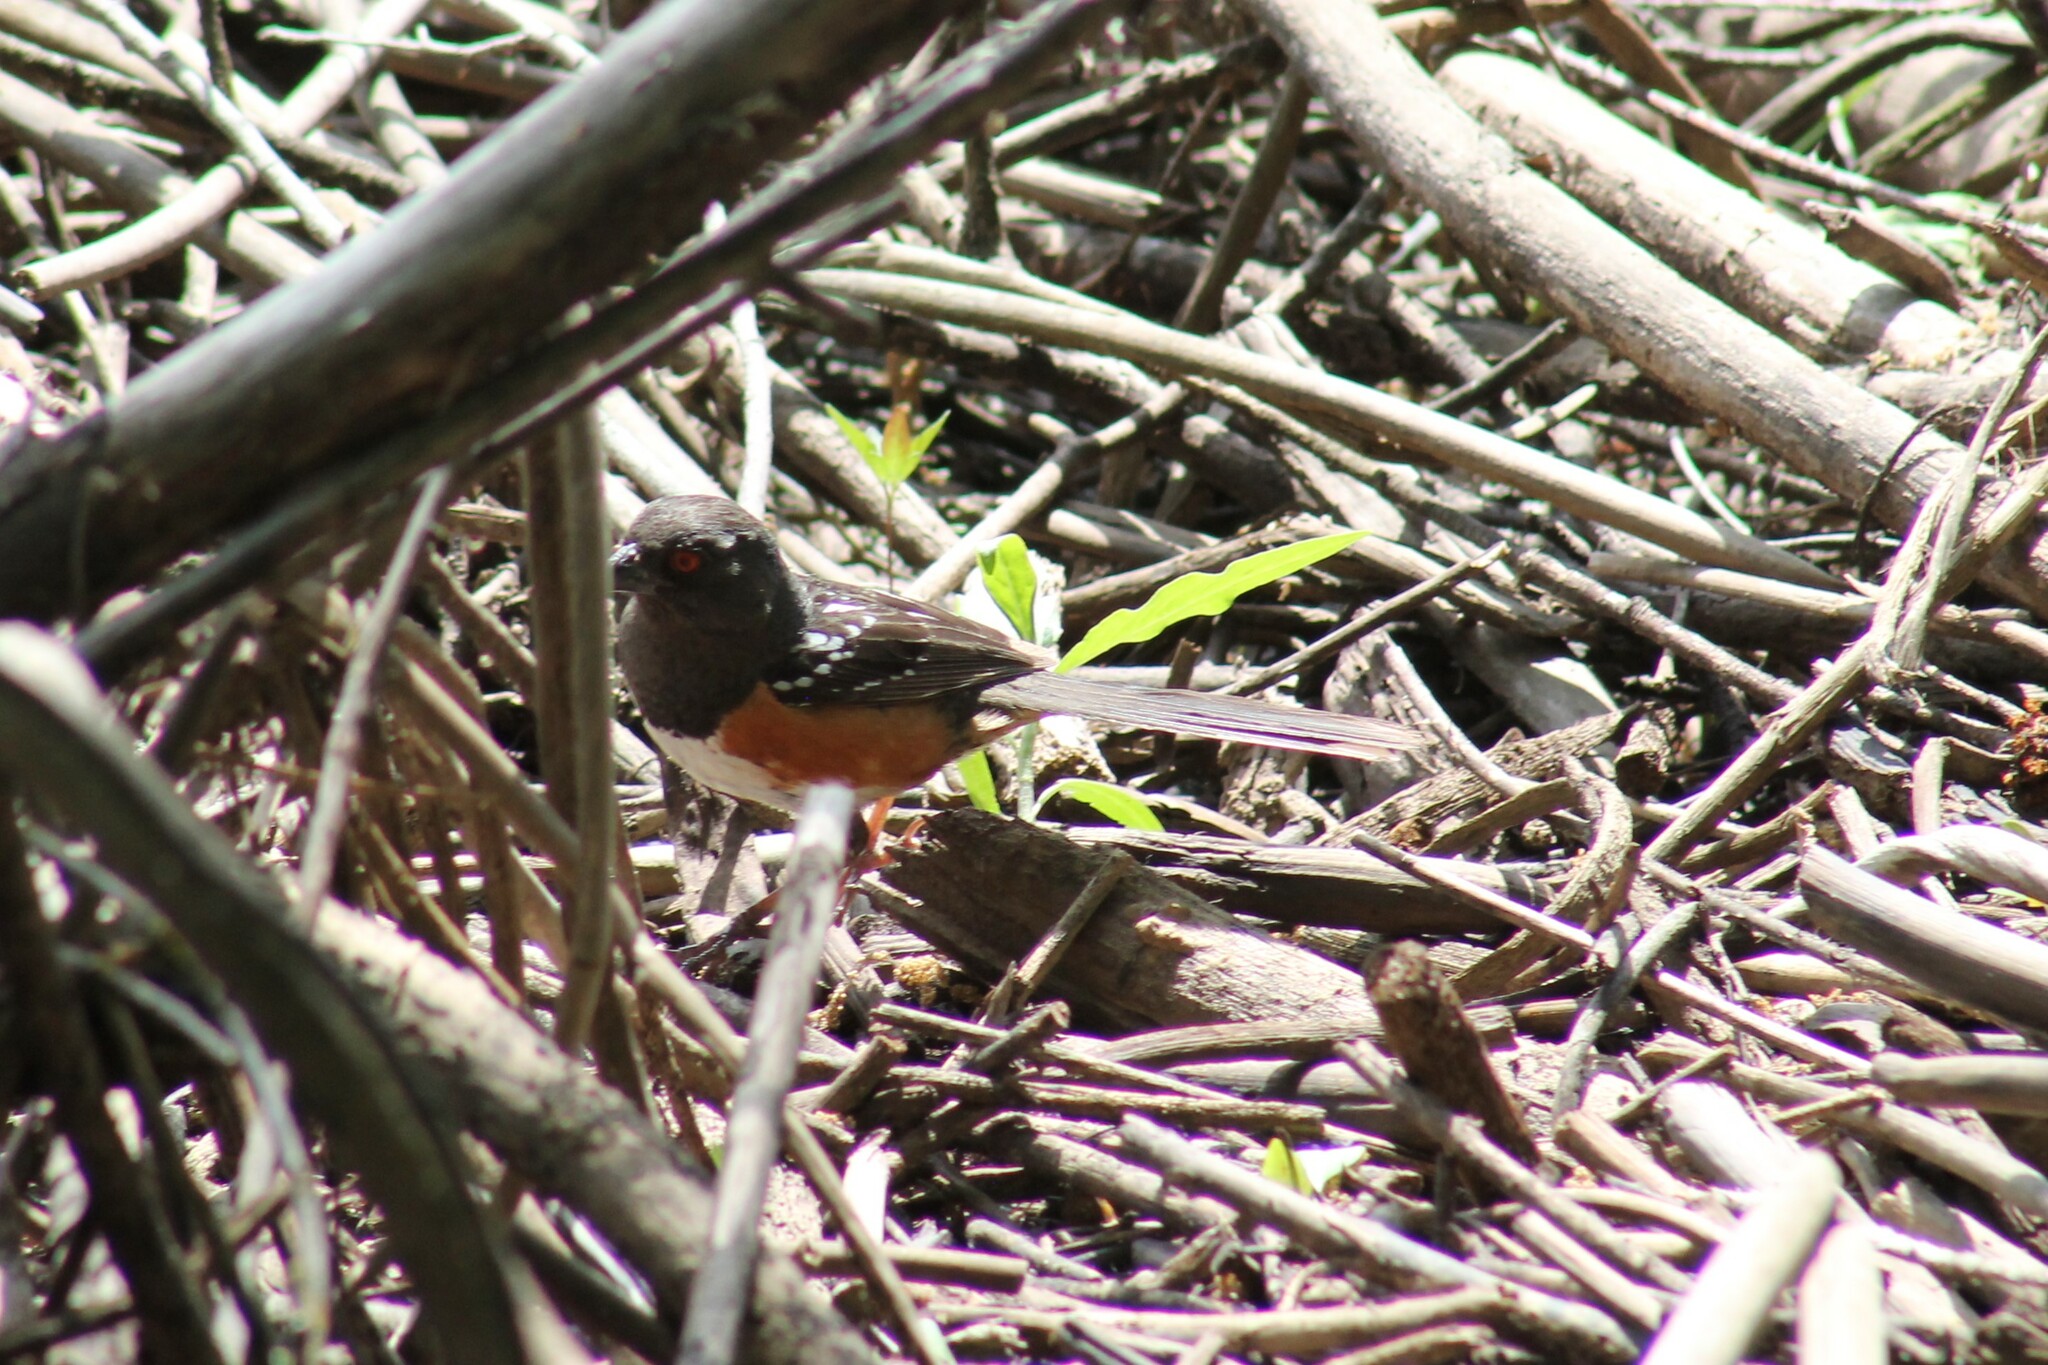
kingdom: Animalia
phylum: Chordata
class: Aves
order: Passeriformes
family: Passerellidae
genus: Pipilo
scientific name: Pipilo maculatus
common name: Spotted towhee
